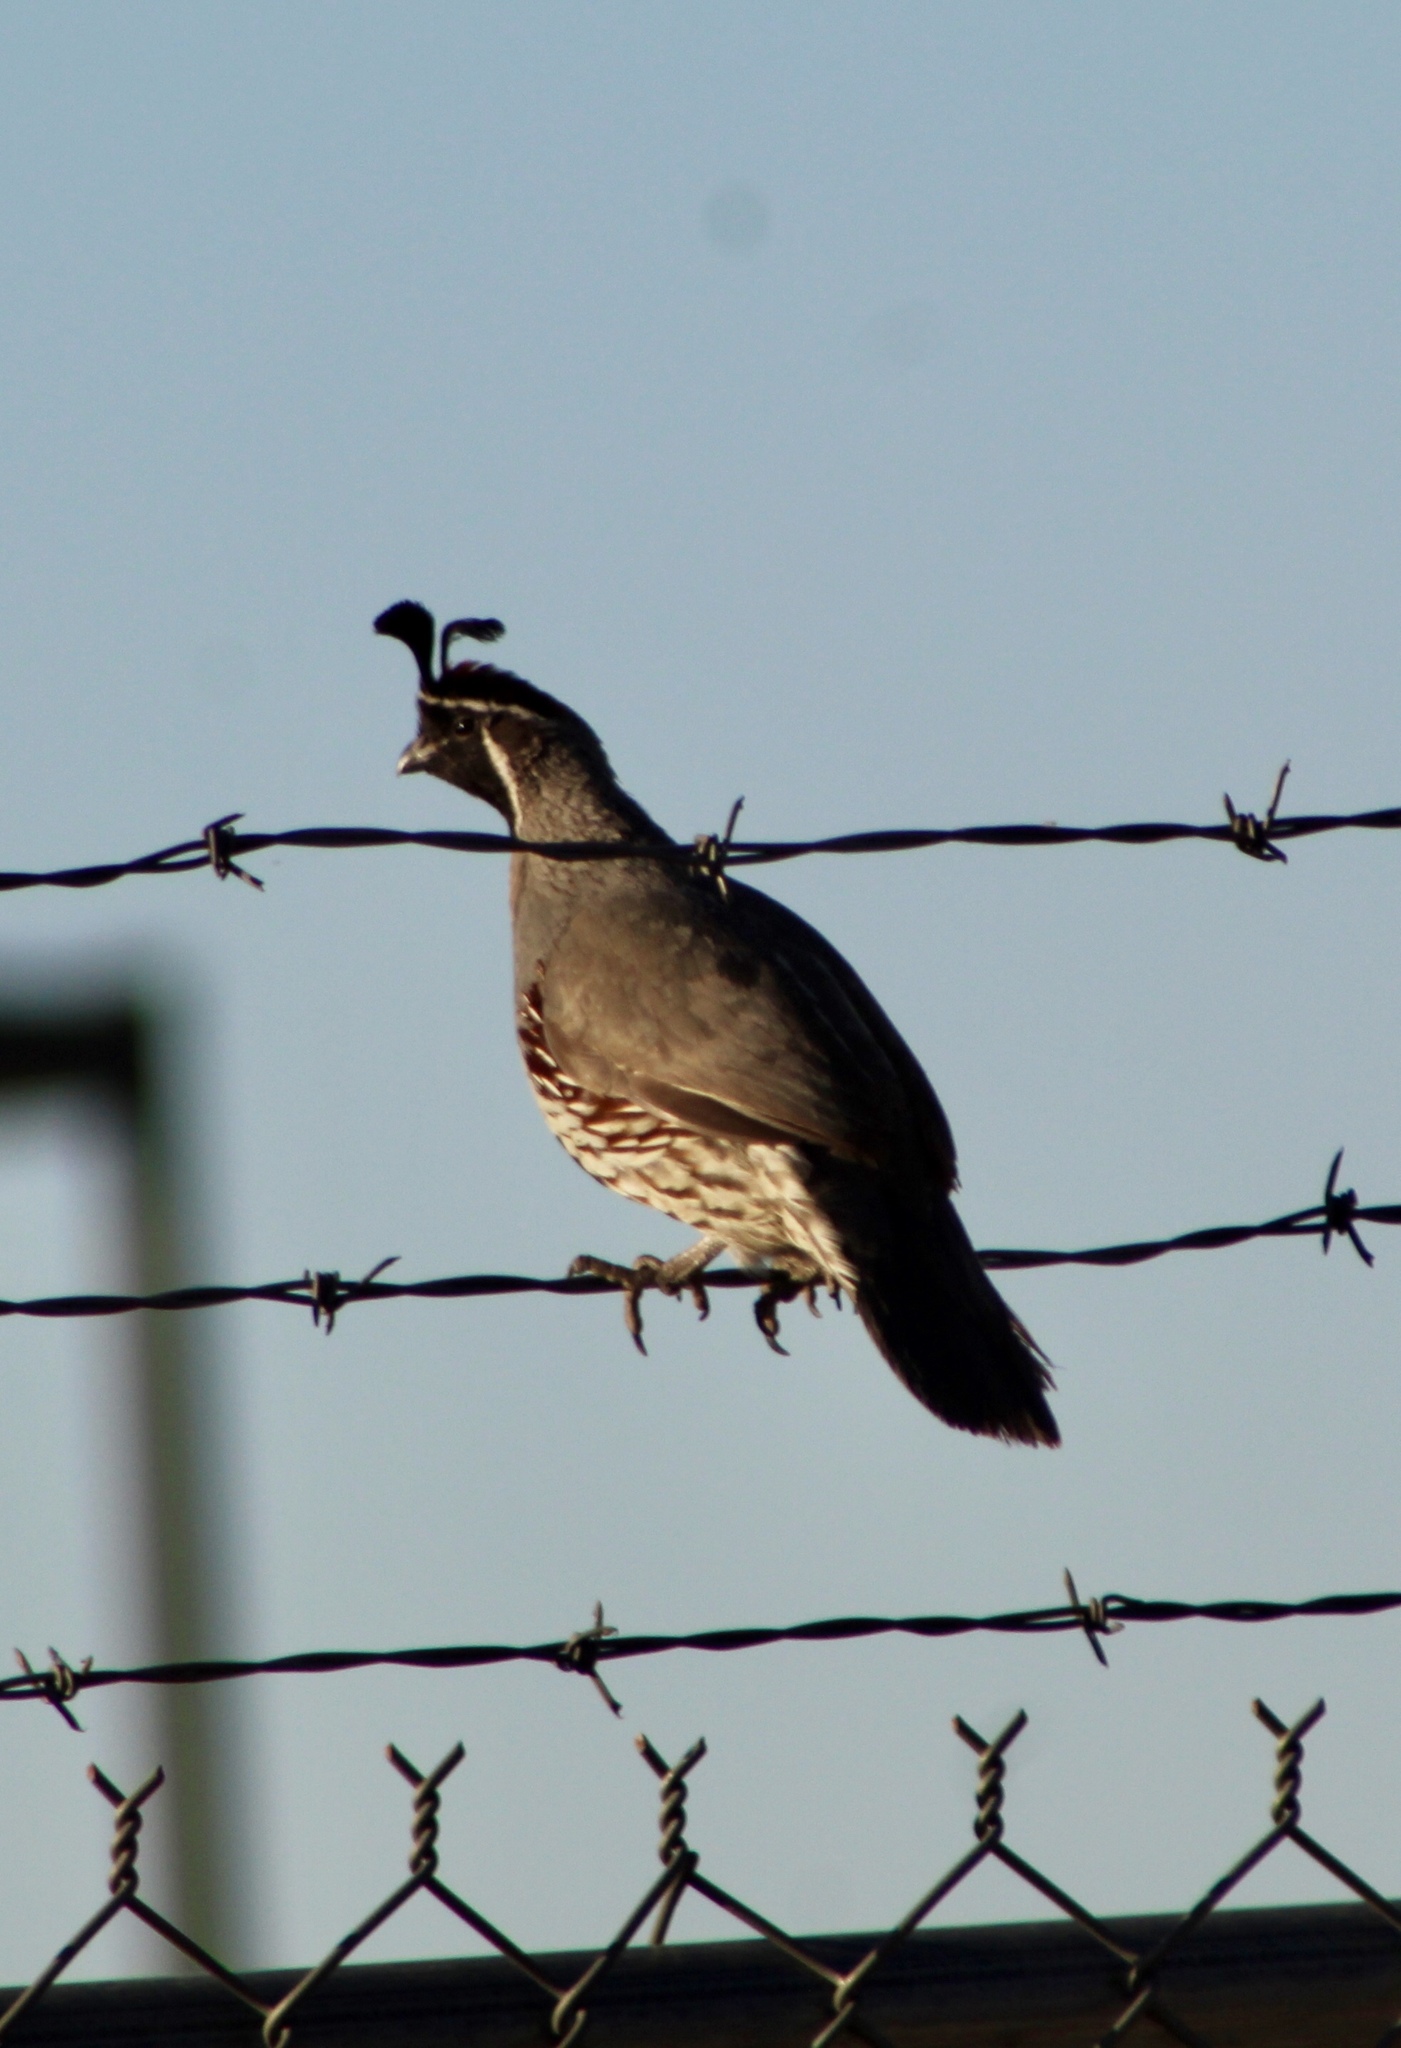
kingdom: Animalia
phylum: Chordata
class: Aves
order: Galliformes
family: Odontophoridae
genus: Callipepla
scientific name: Callipepla gambelii
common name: Gambel's quail
